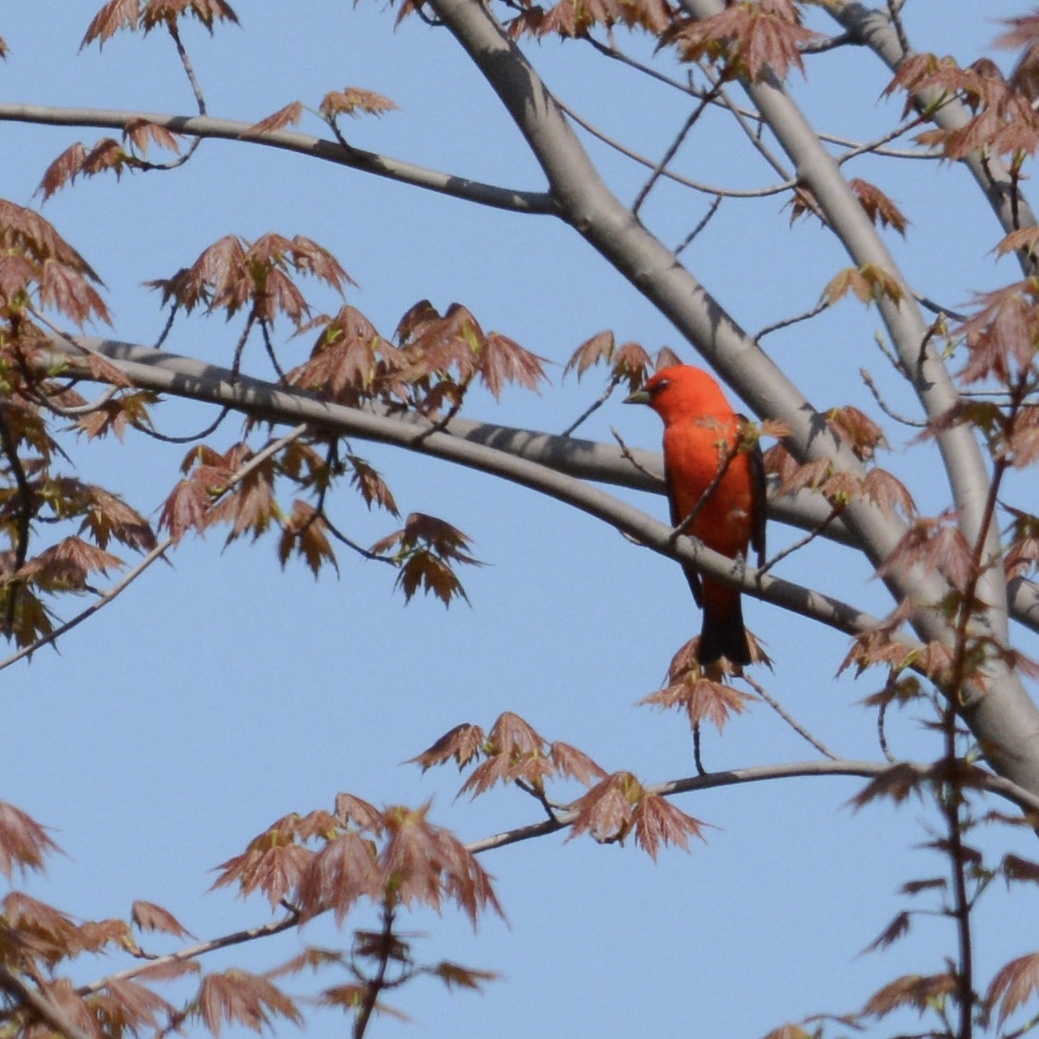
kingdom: Animalia
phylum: Chordata
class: Aves
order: Passeriformes
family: Cardinalidae
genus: Piranga
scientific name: Piranga olivacea
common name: Scarlet tanager
